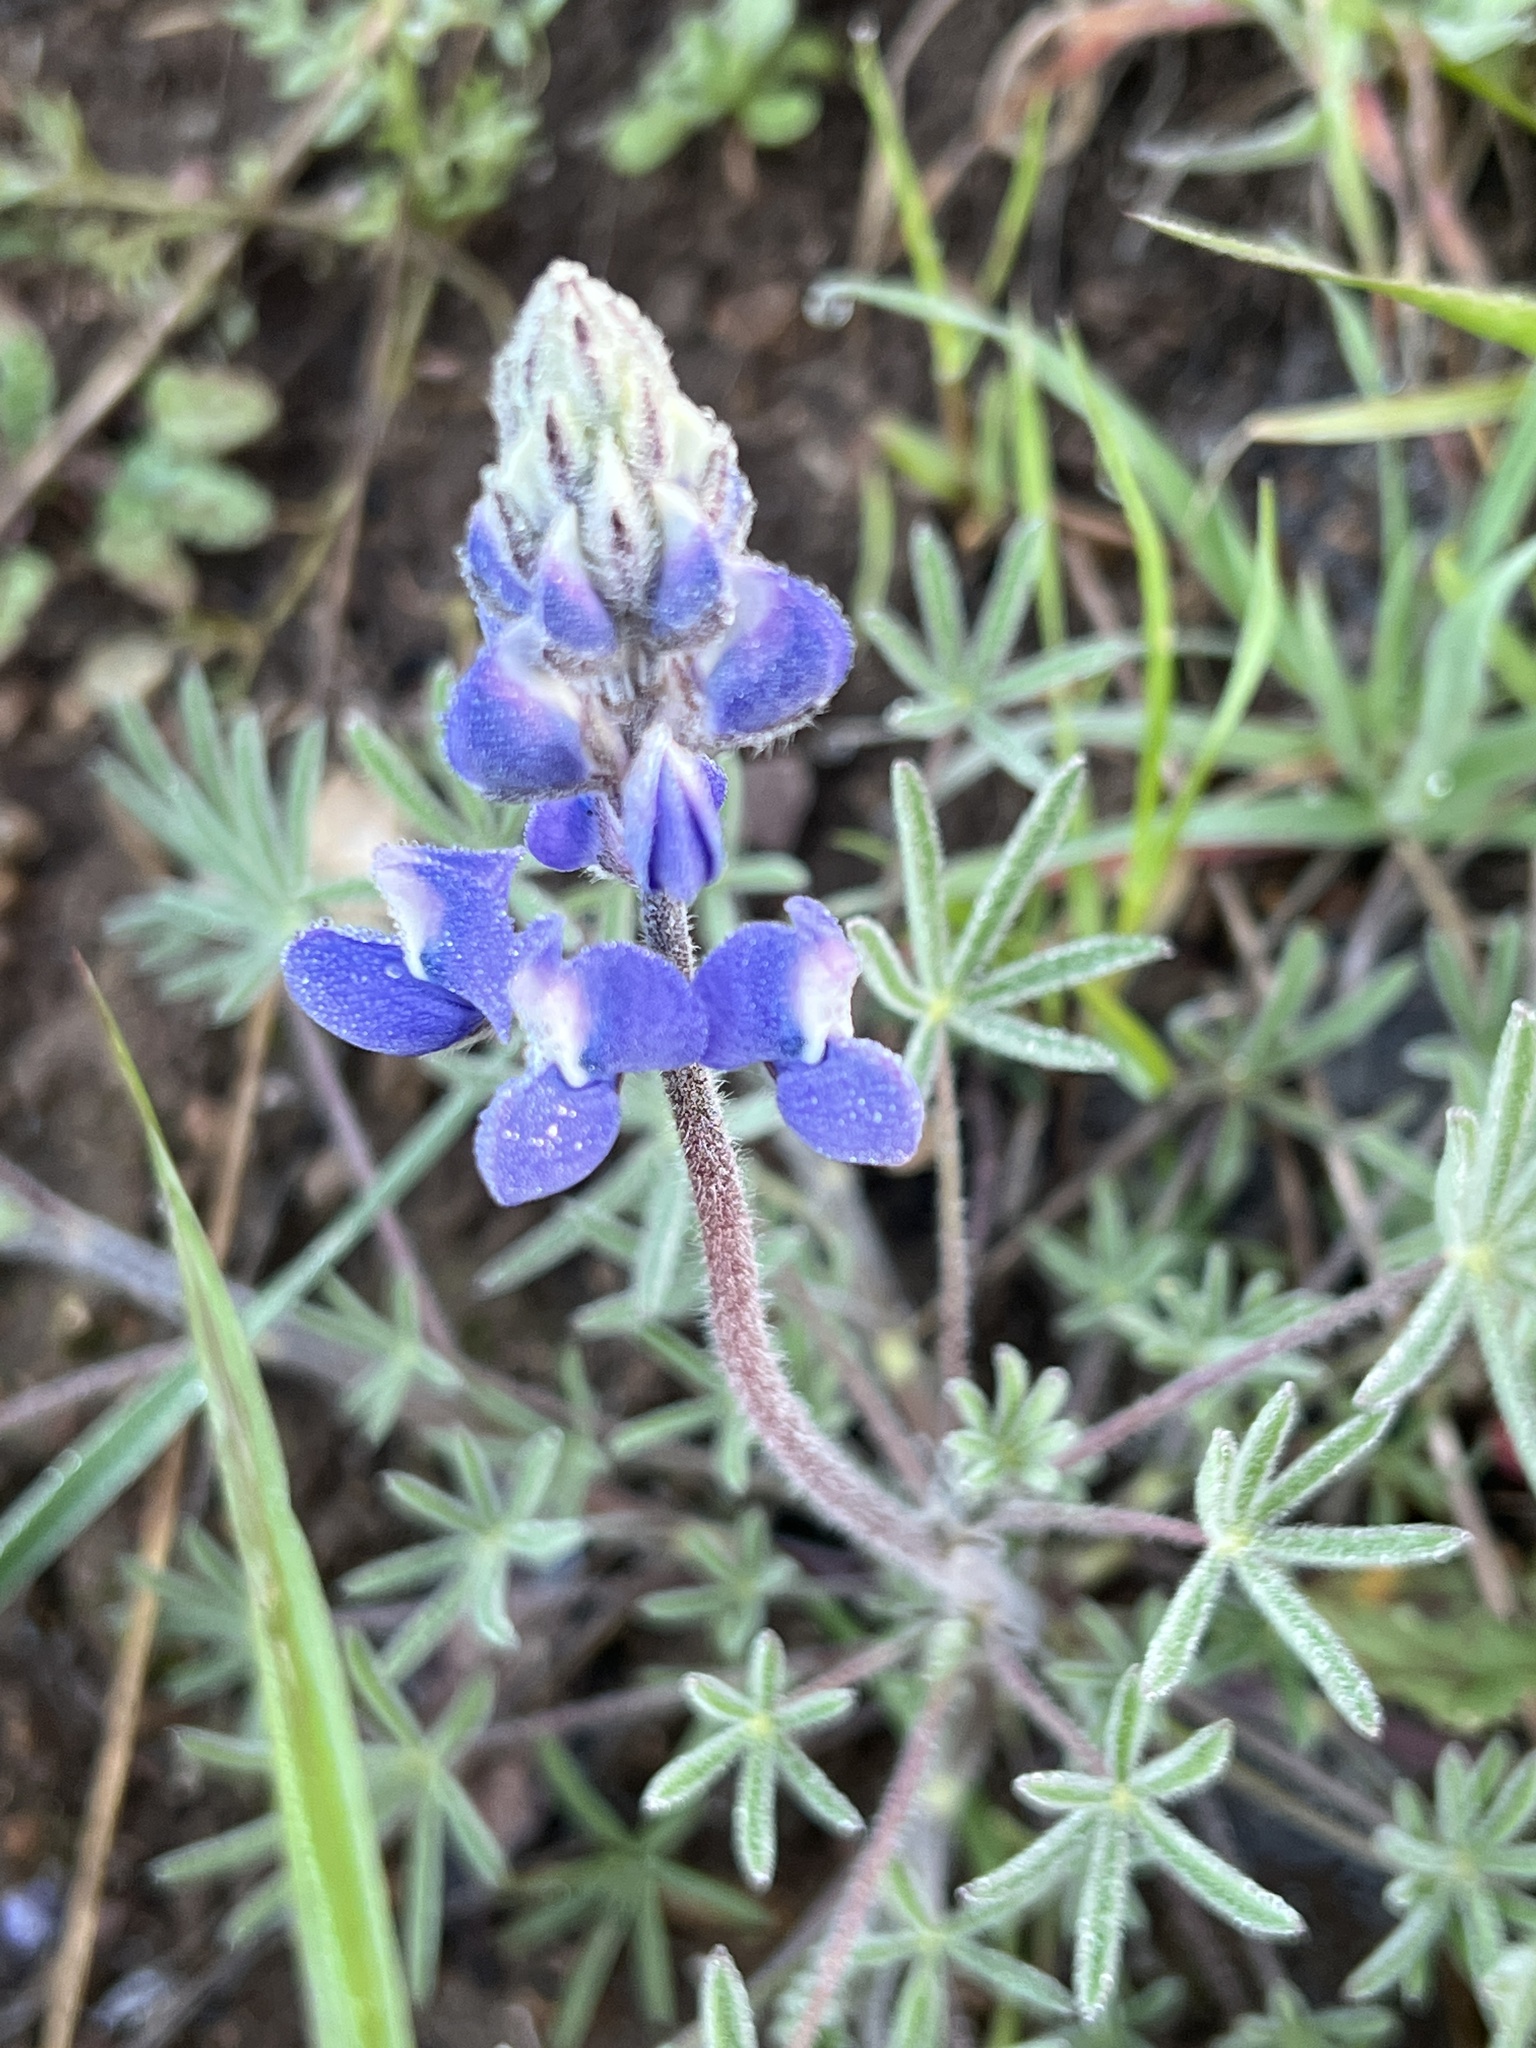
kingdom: Plantae
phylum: Tracheophyta
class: Magnoliopsida
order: Fabales
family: Fabaceae
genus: Lupinus
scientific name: Lupinus nanus
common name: Orean blue lupin
